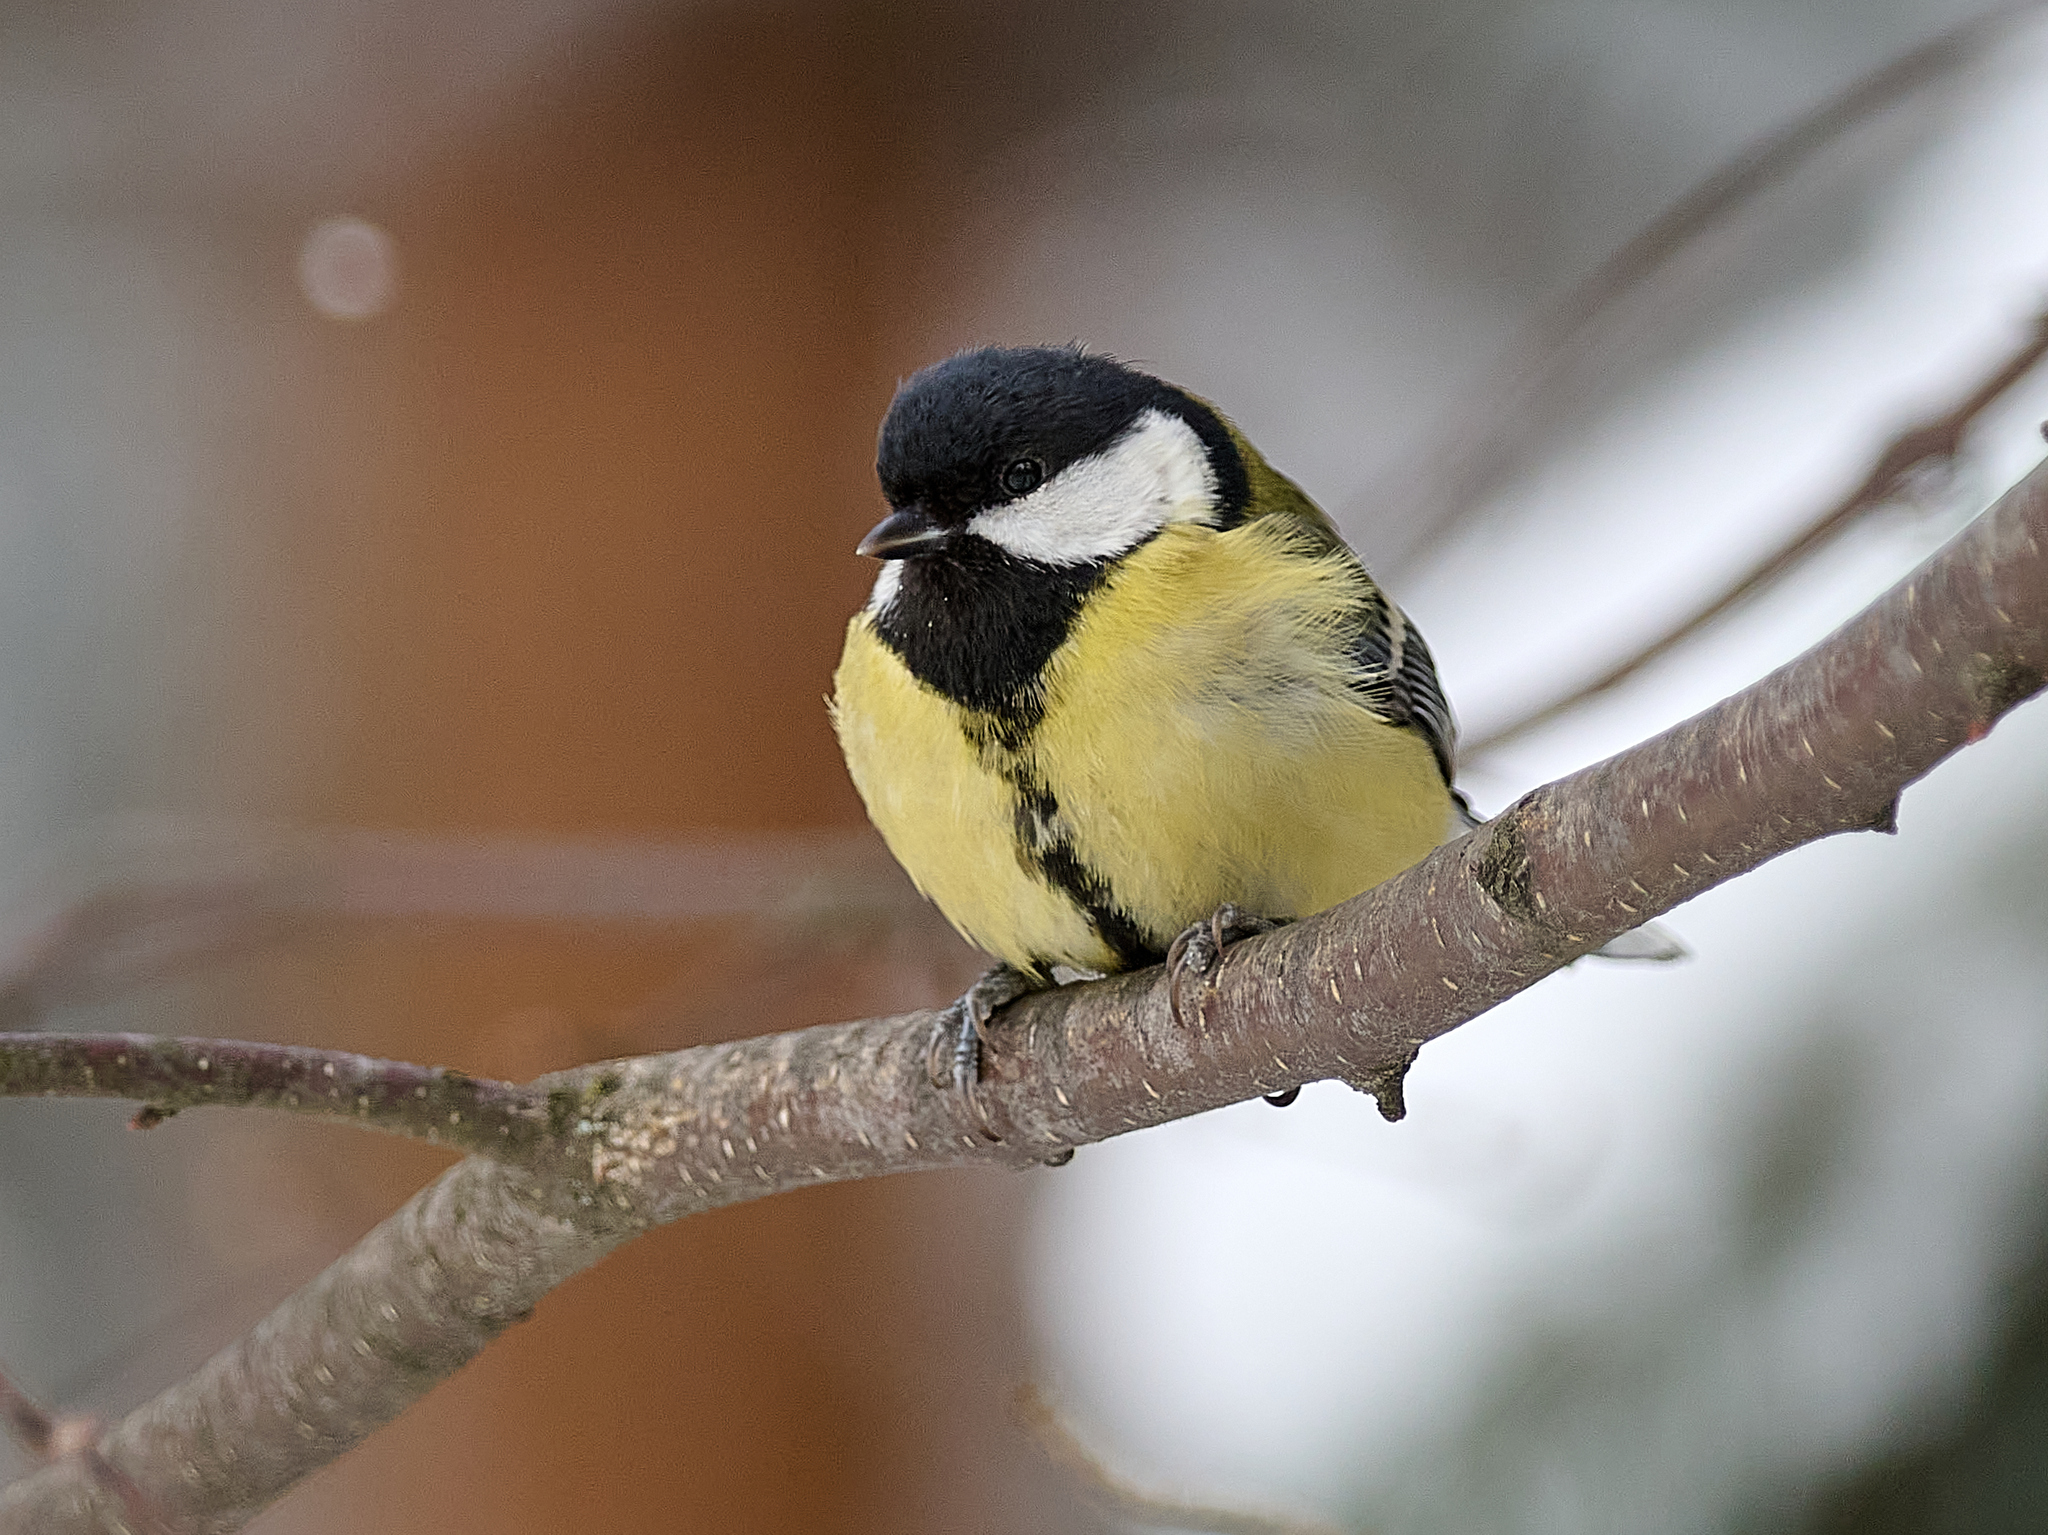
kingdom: Animalia
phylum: Chordata
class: Aves
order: Passeriformes
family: Paridae
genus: Parus
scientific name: Parus major
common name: Great tit
